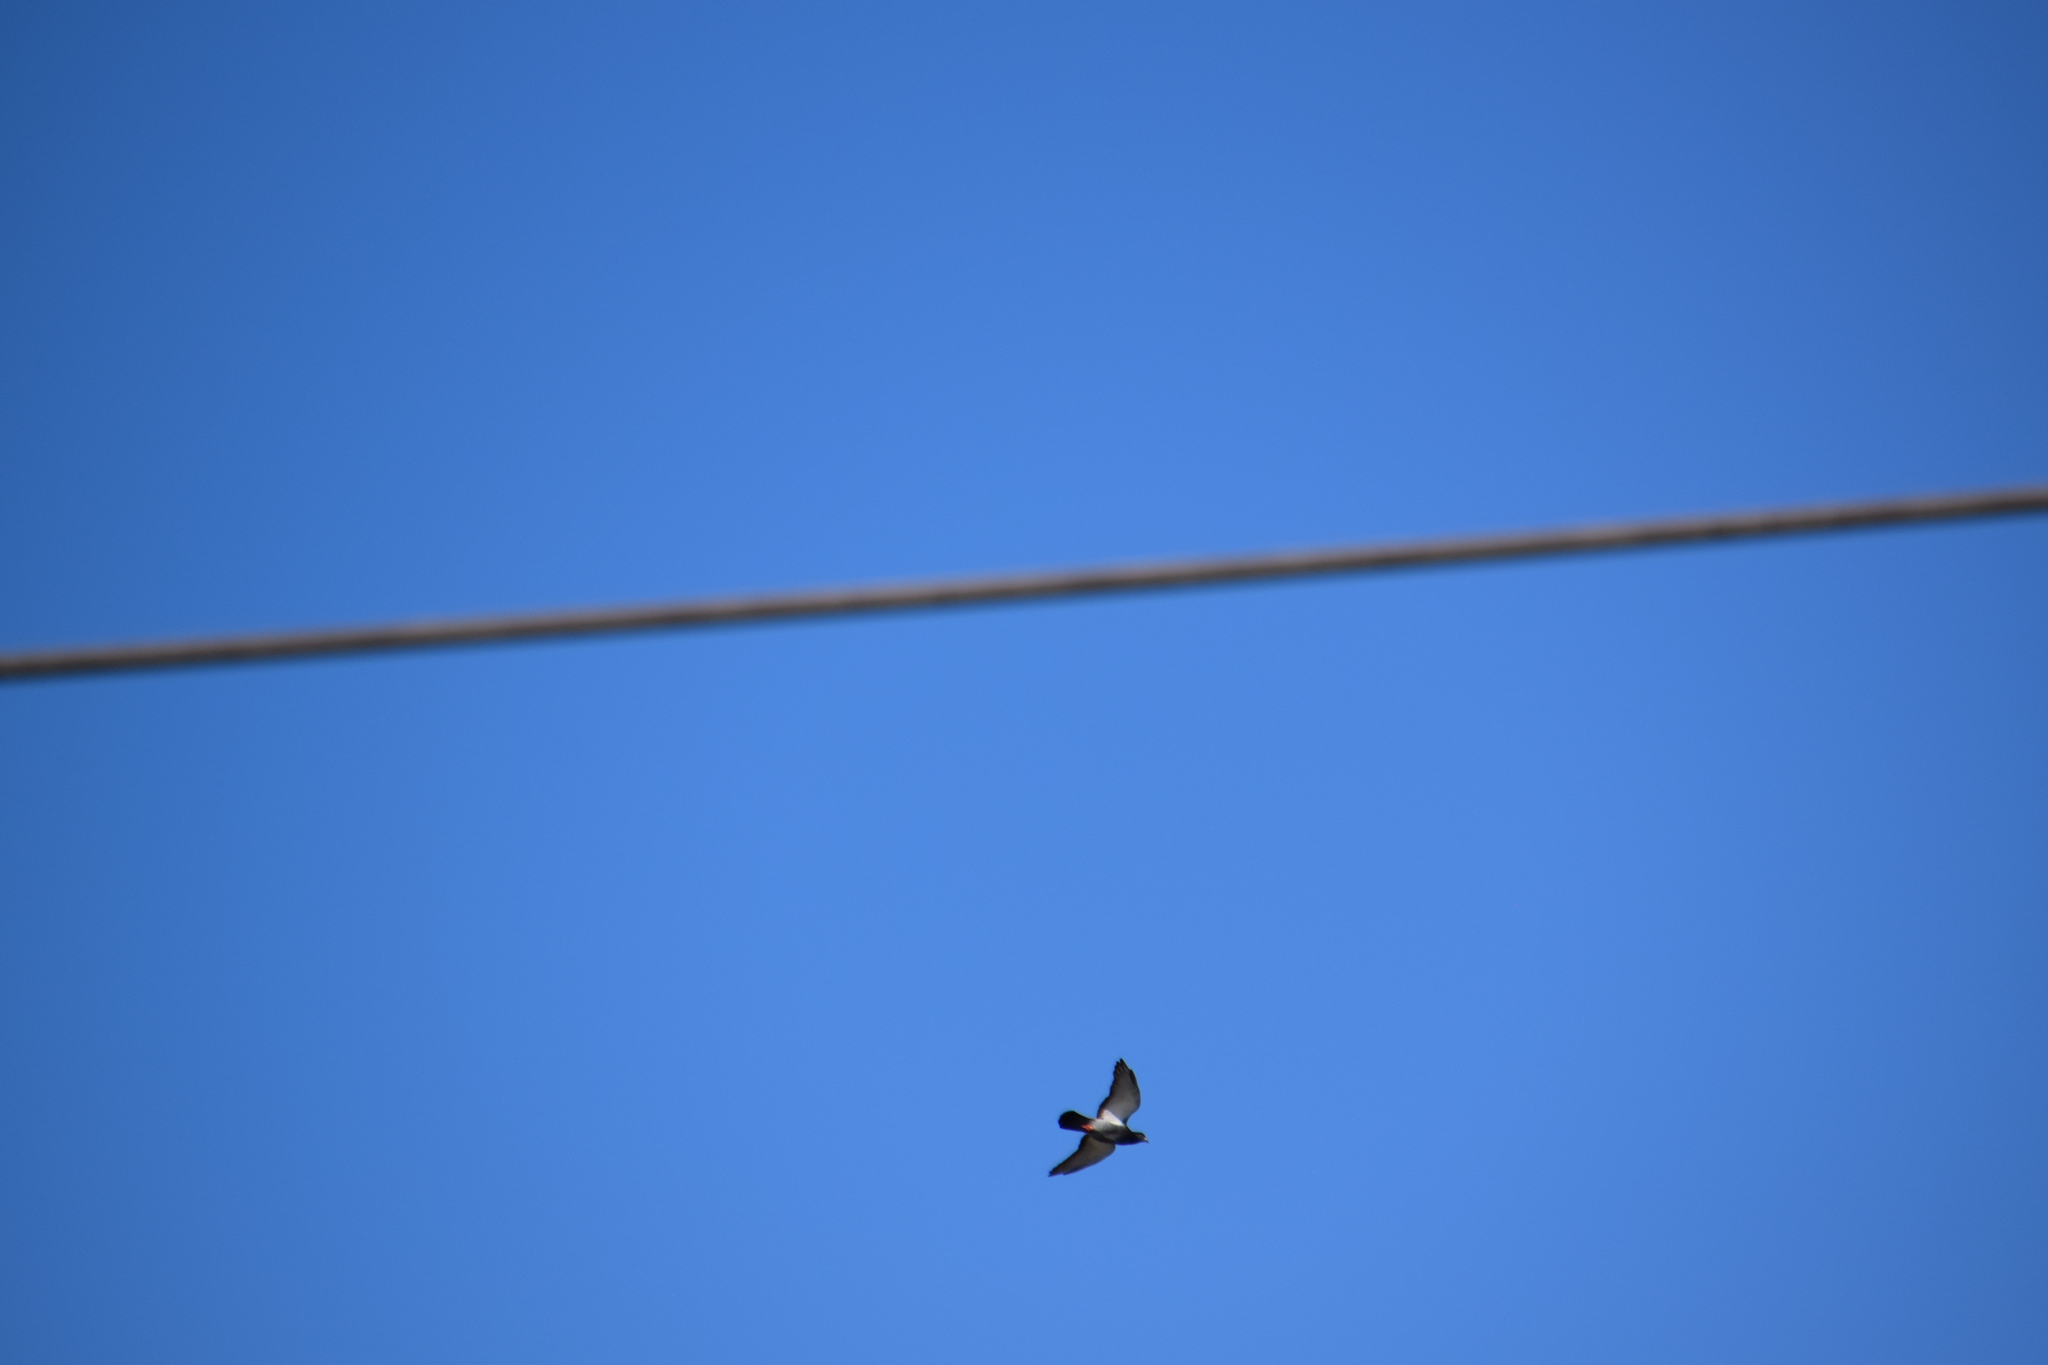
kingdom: Animalia
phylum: Chordata
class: Aves
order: Columbiformes
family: Columbidae
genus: Columba
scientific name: Columba livia
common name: Rock pigeon
